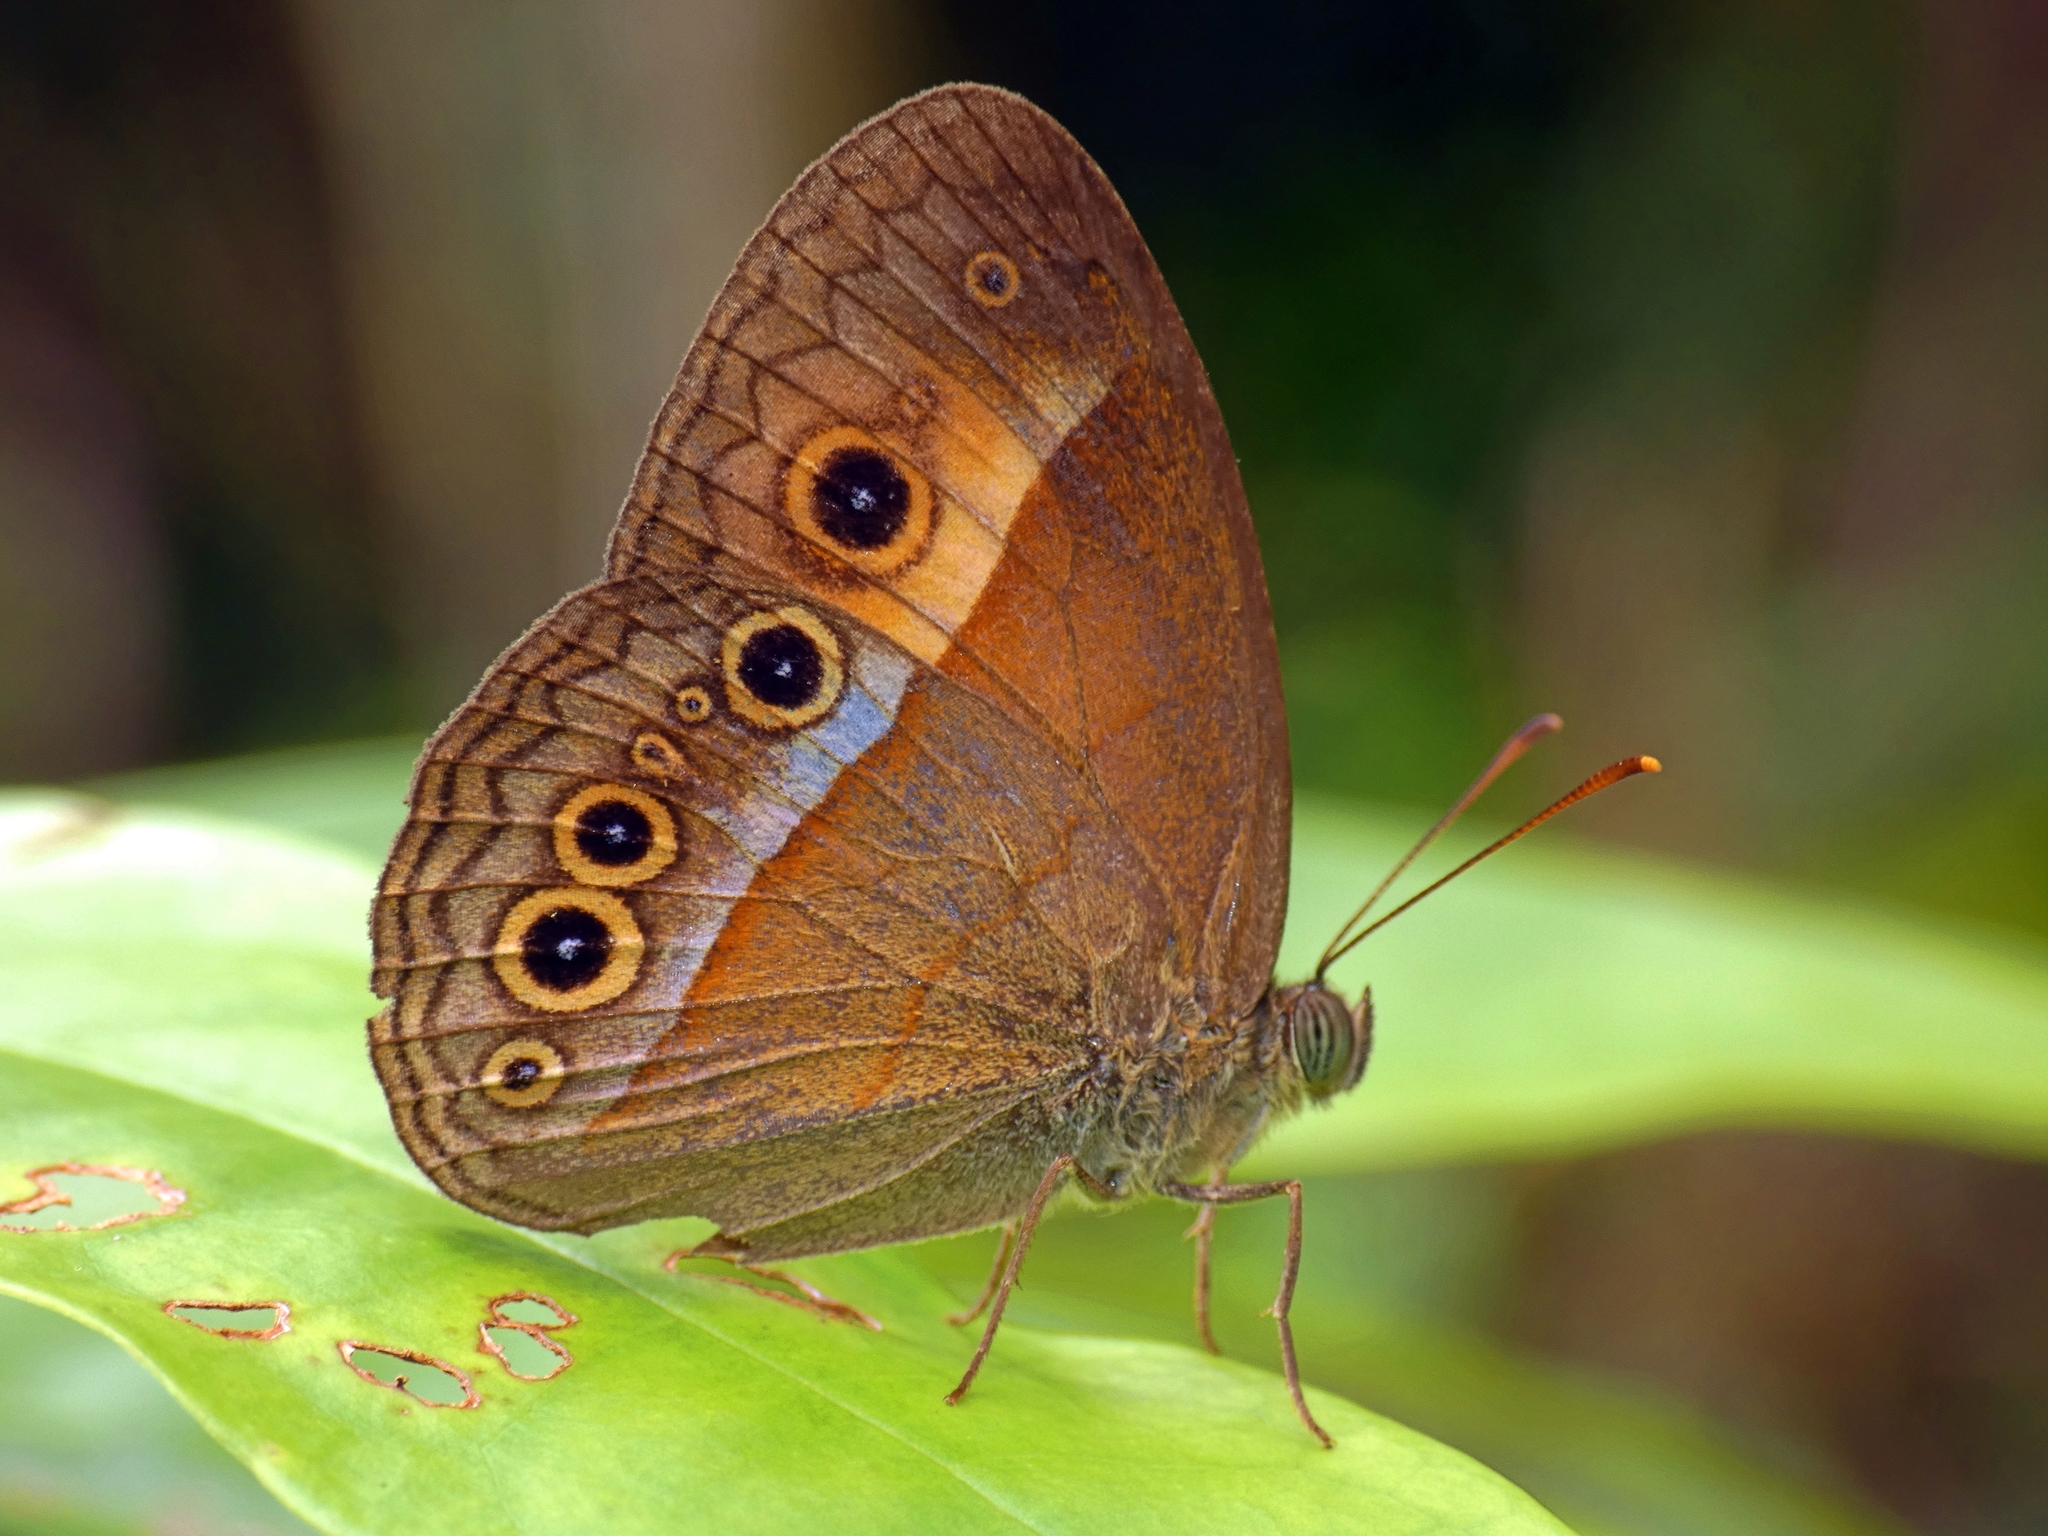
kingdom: Animalia
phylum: Arthropoda
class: Insecta
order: Lepidoptera
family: Nymphalidae
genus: Mycalesis
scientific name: Mycalesis terminus
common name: Orange bushbrown
